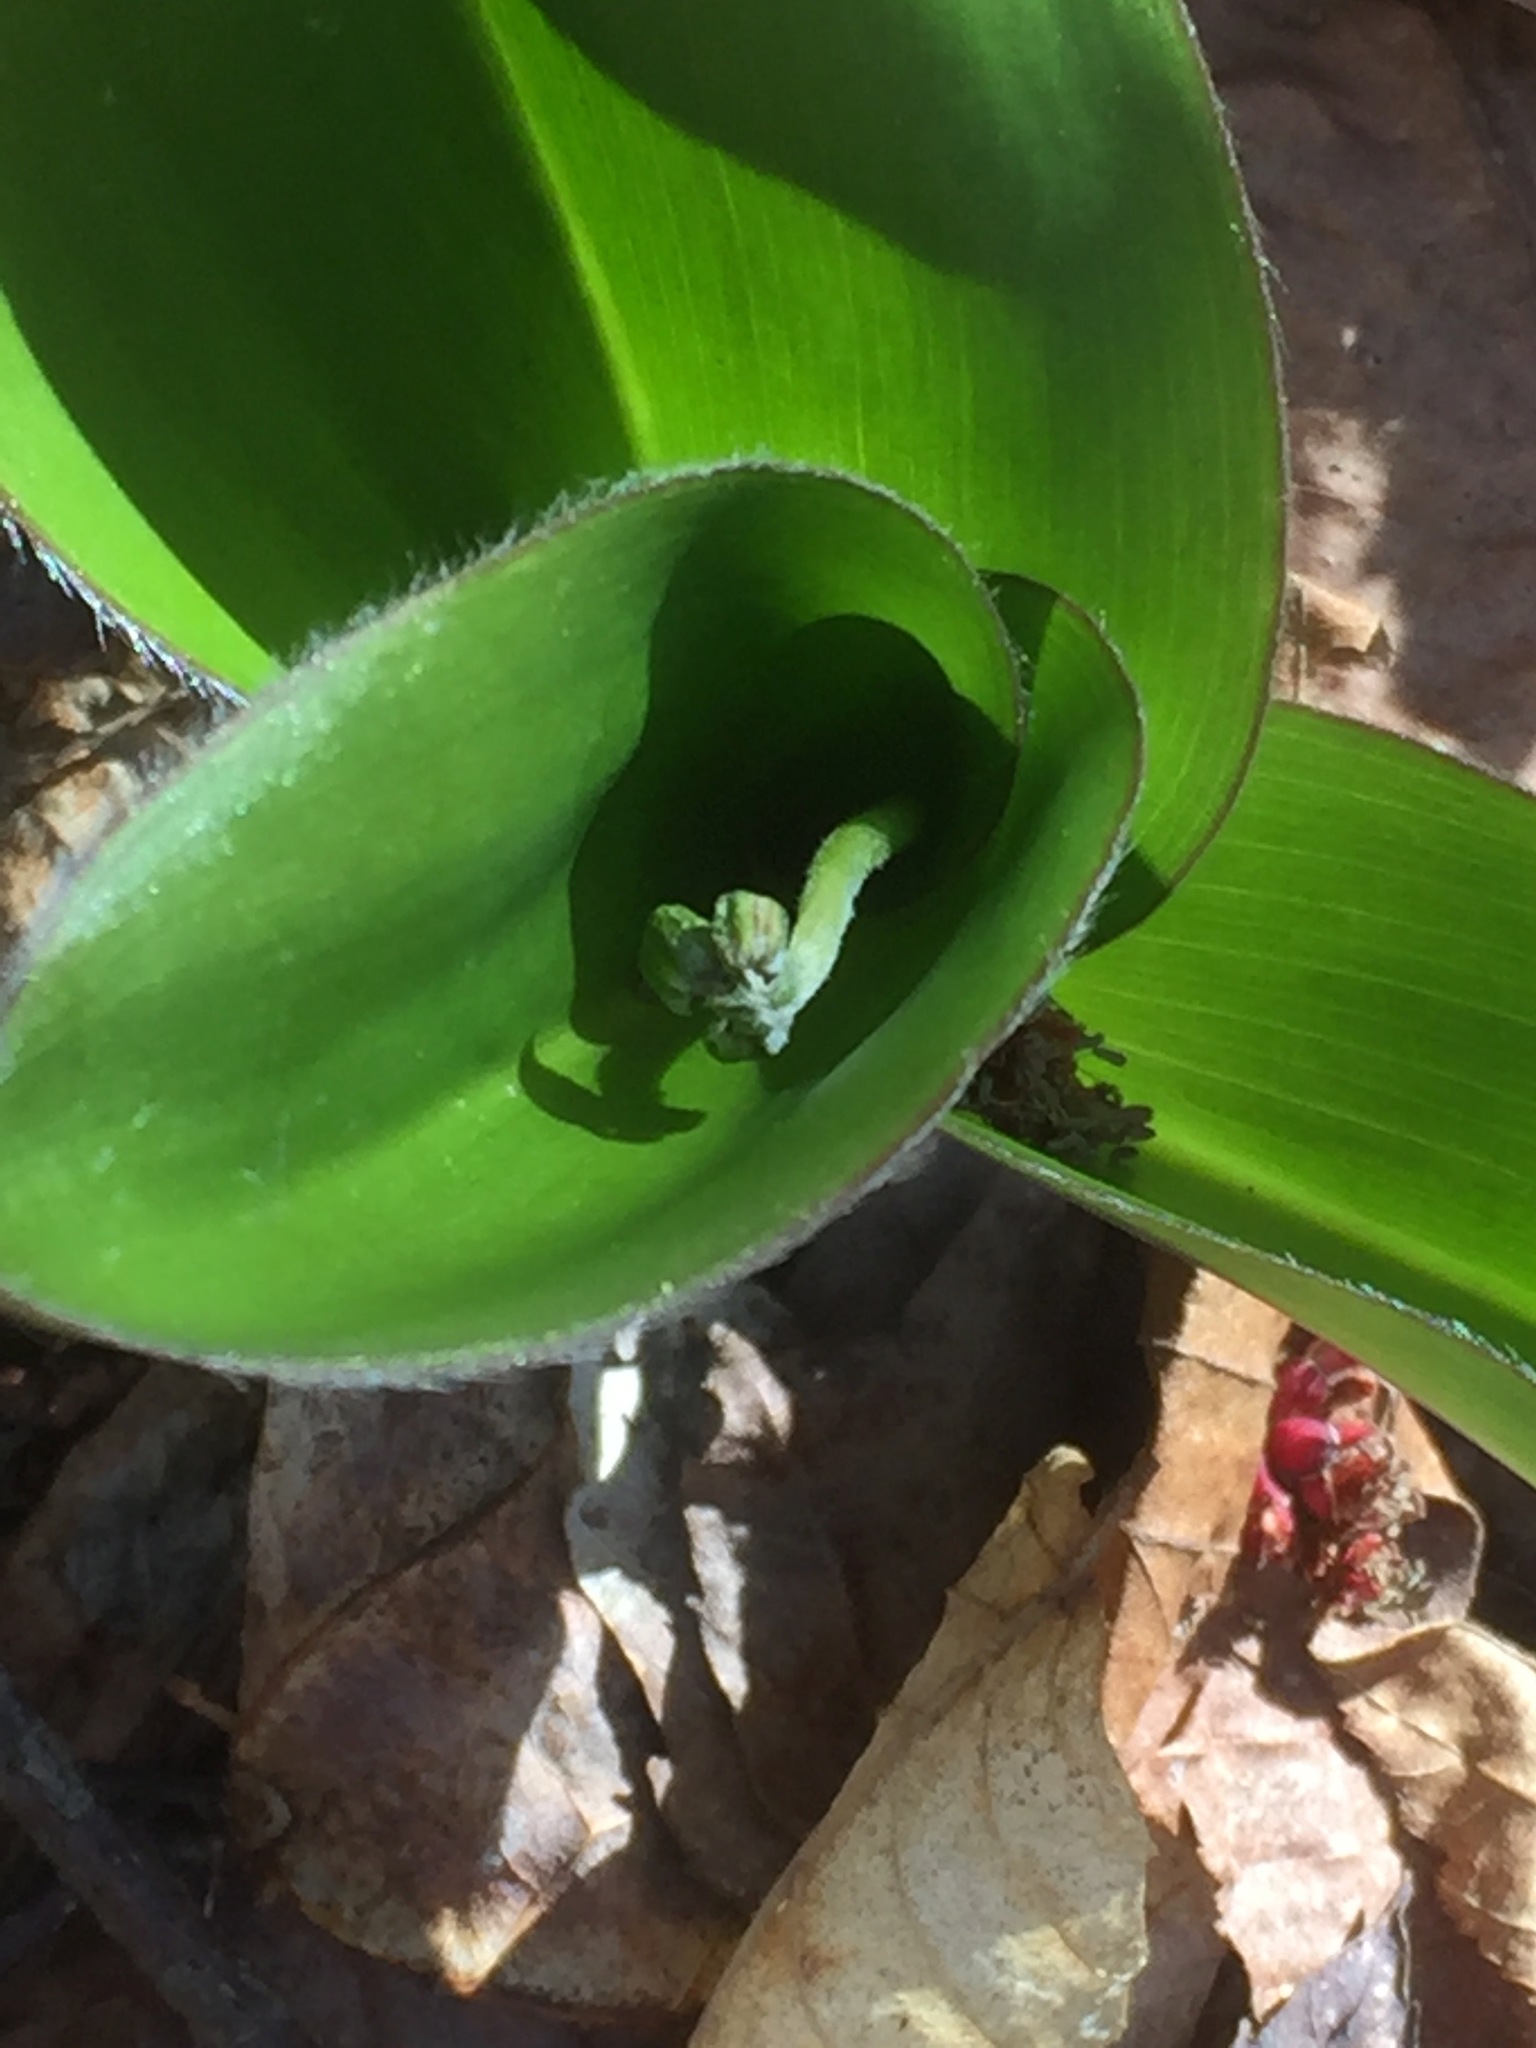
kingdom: Plantae
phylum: Tracheophyta
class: Liliopsida
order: Liliales
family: Liliaceae
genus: Clintonia
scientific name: Clintonia borealis
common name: Yellow clintonia
